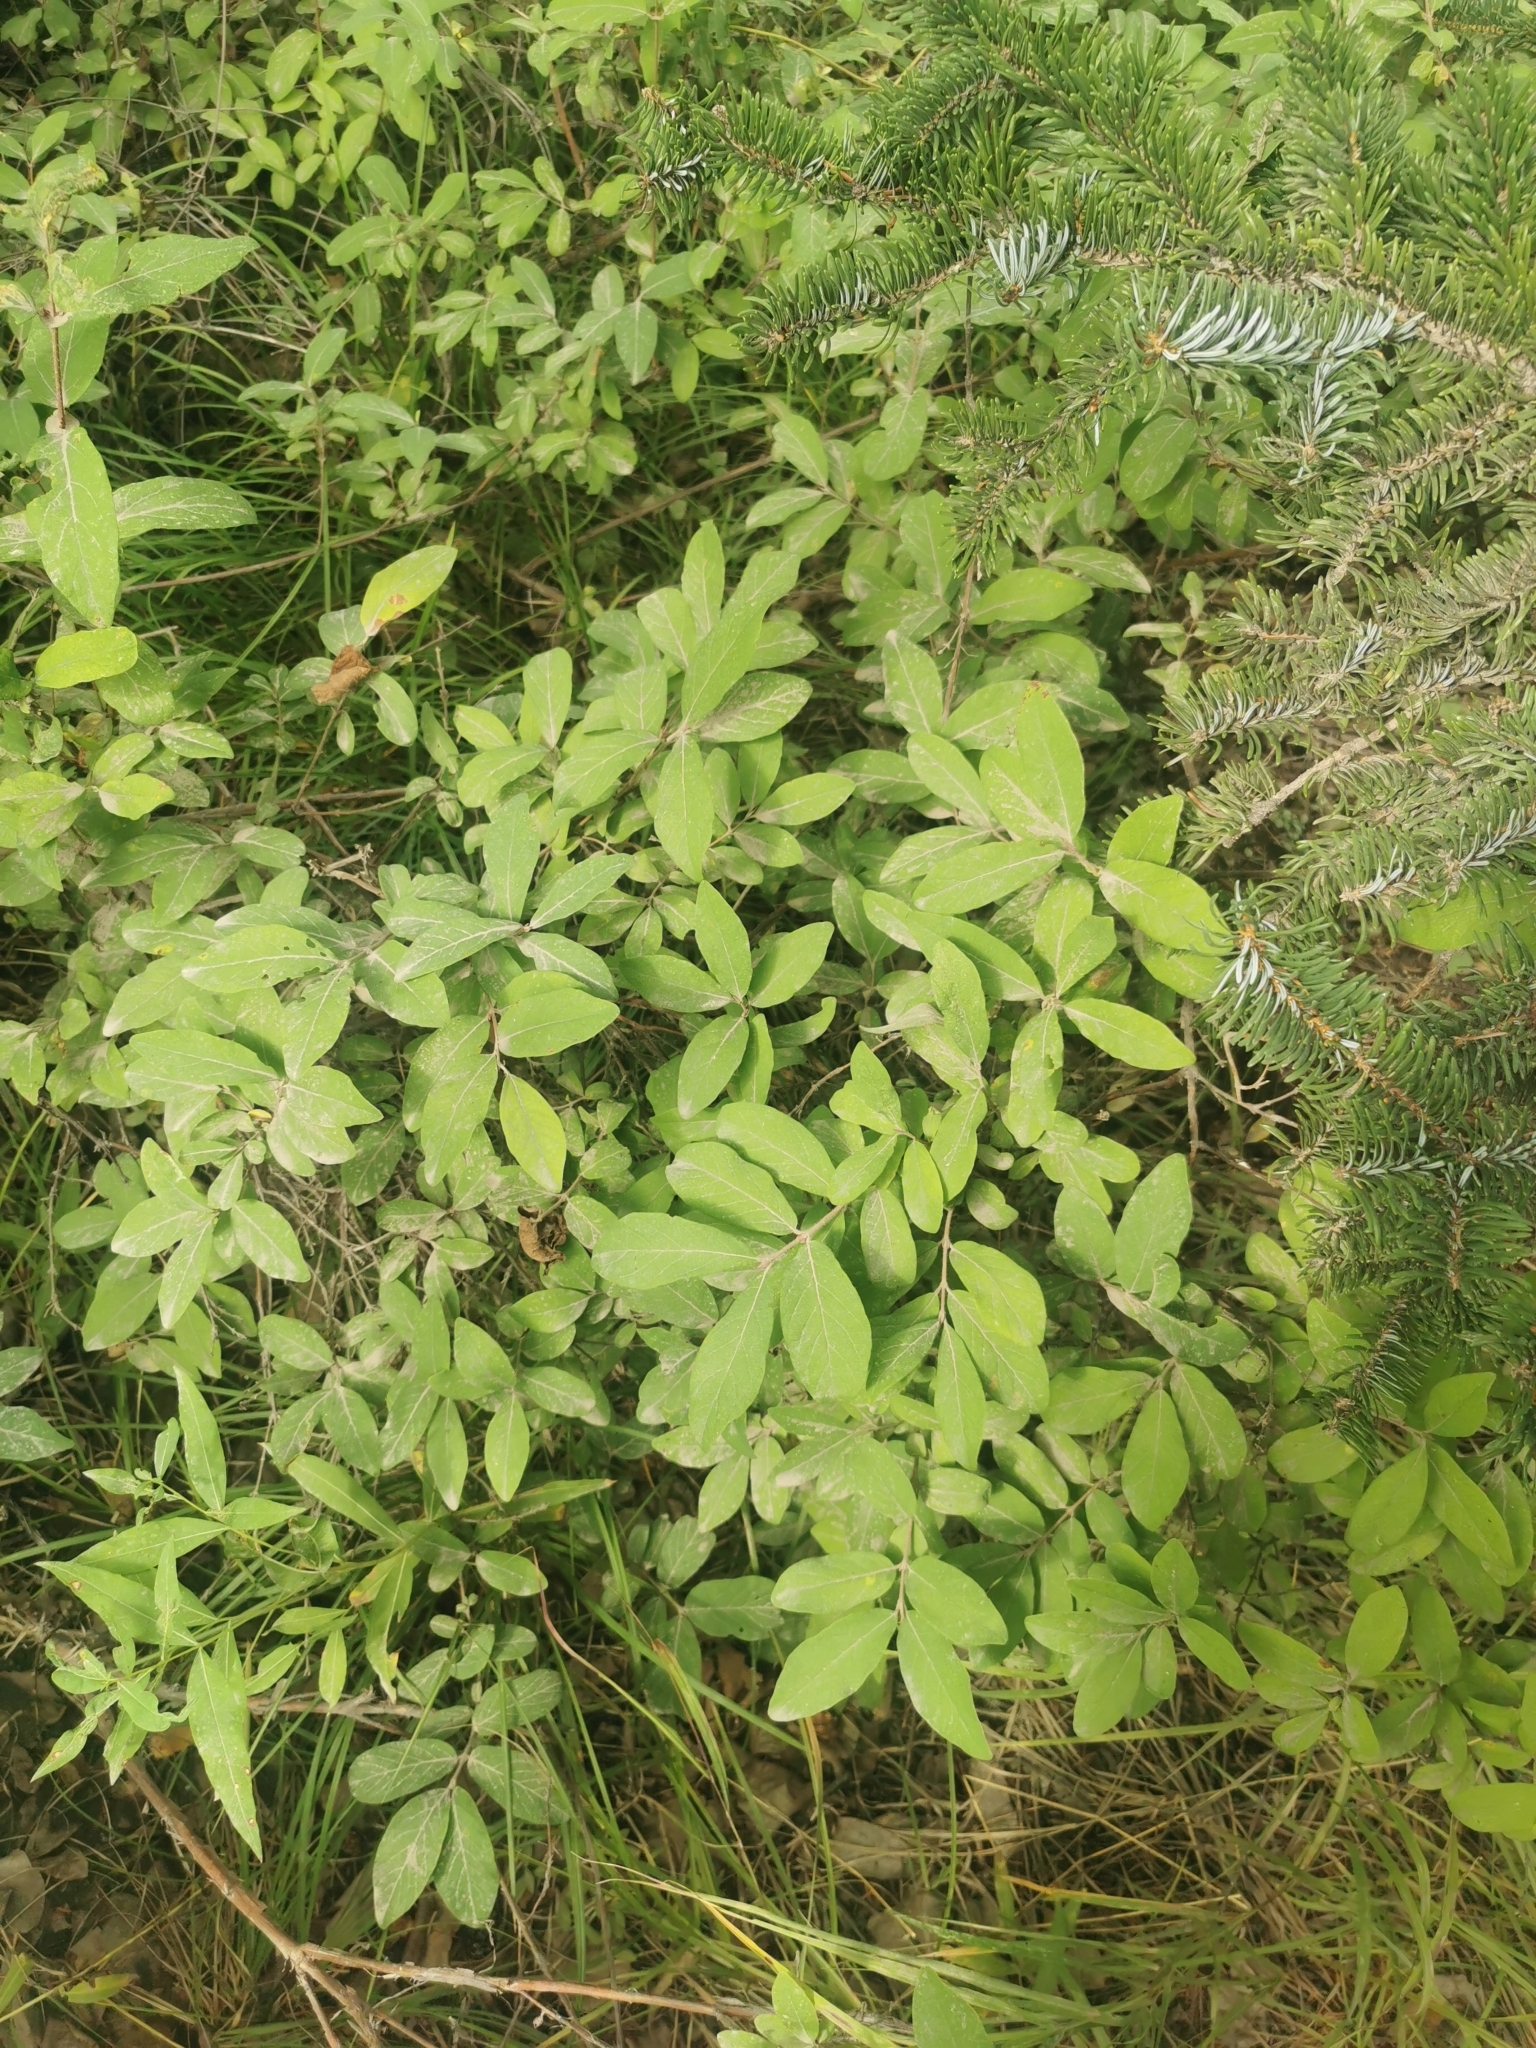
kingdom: Plantae
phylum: Tracheophyta
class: Magnoliopsida
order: Dipsacales
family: Caprifoliaceae
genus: Lonicera
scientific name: Lonicera caerulea
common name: Blue honeysuckle
